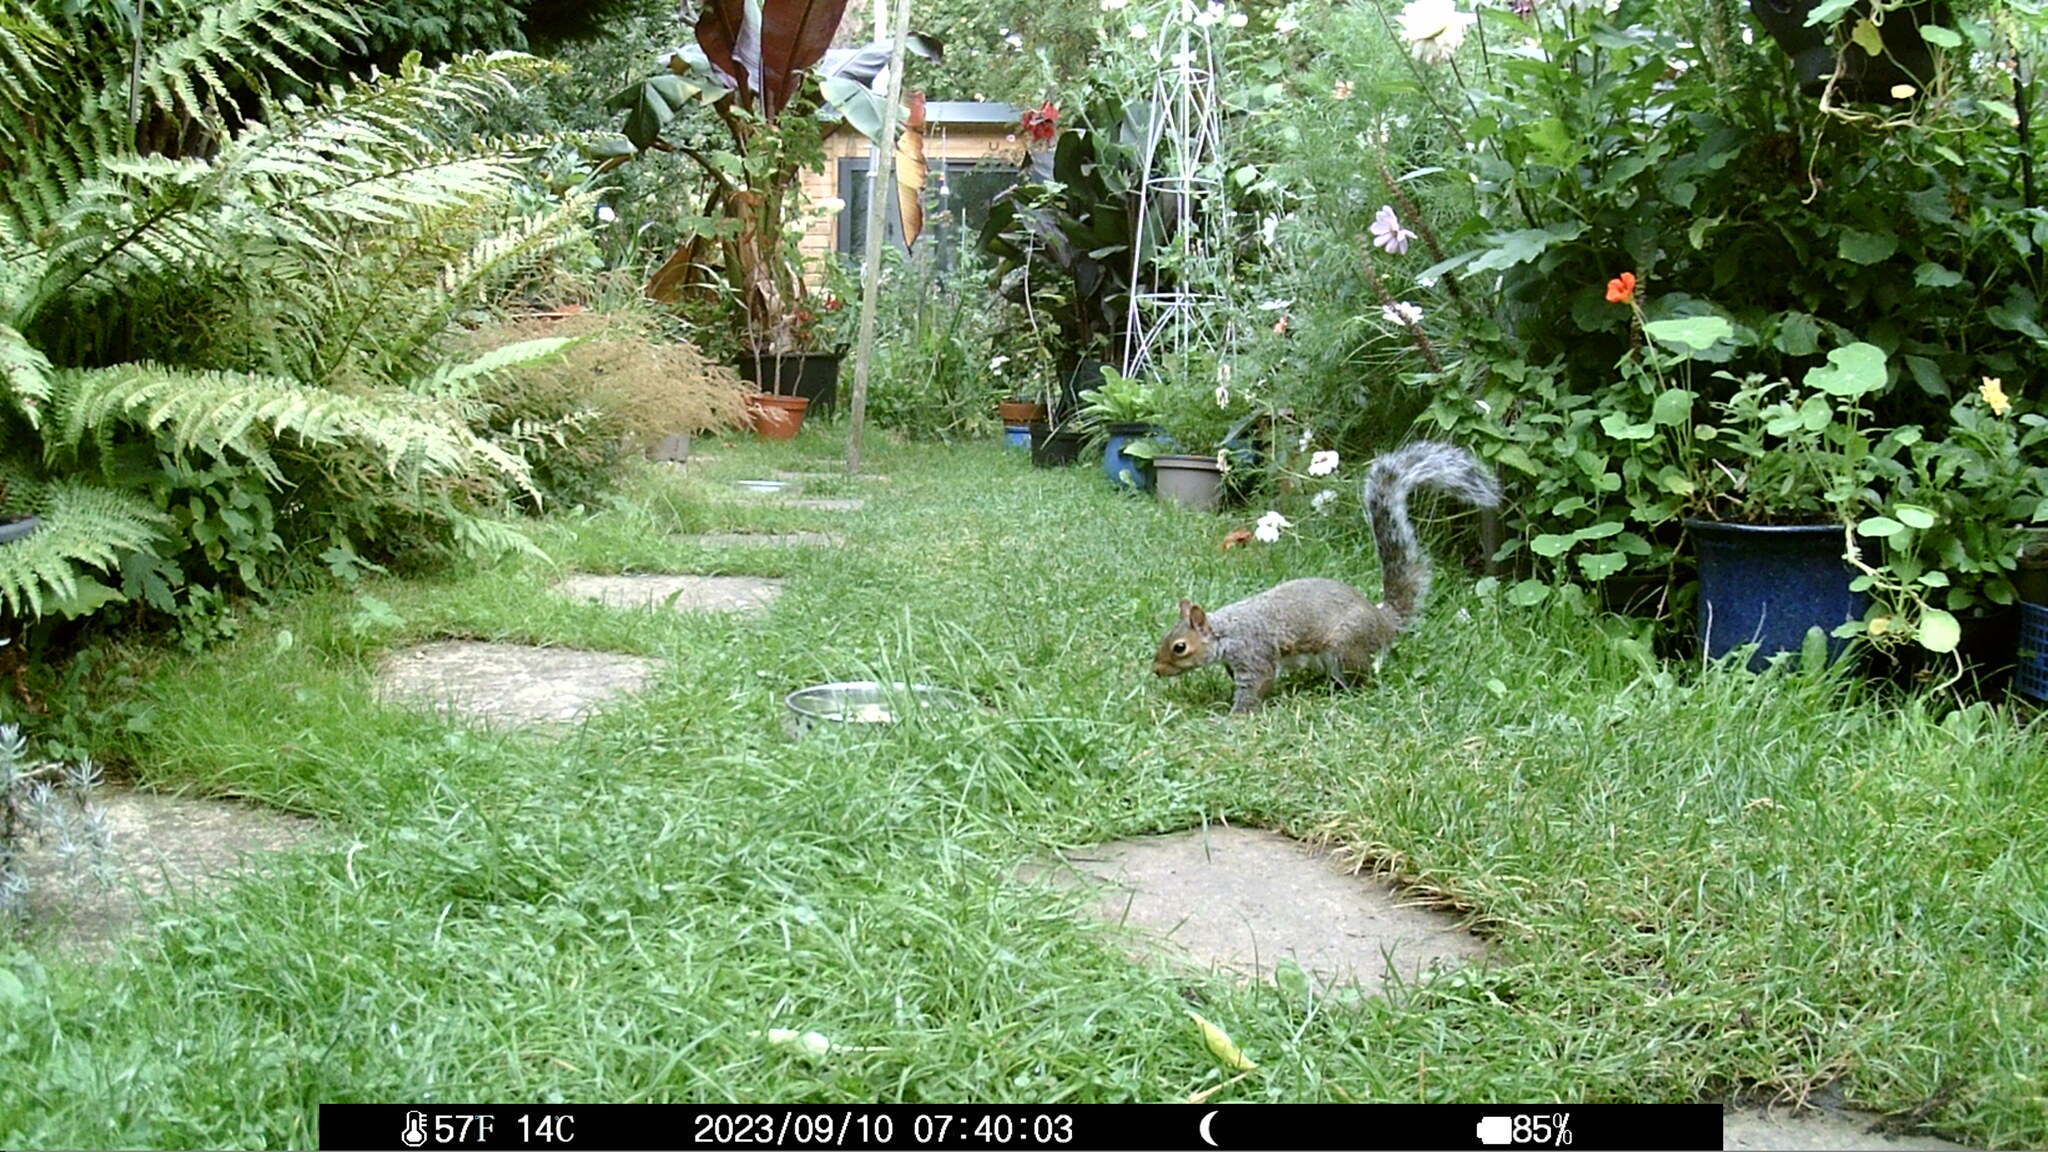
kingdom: Animalia
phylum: Chordata
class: Mammalia
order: Rodentia
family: Sciuridae
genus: Sciurus
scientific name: Sciurus carolinensis
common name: Eastern gray squirrel
